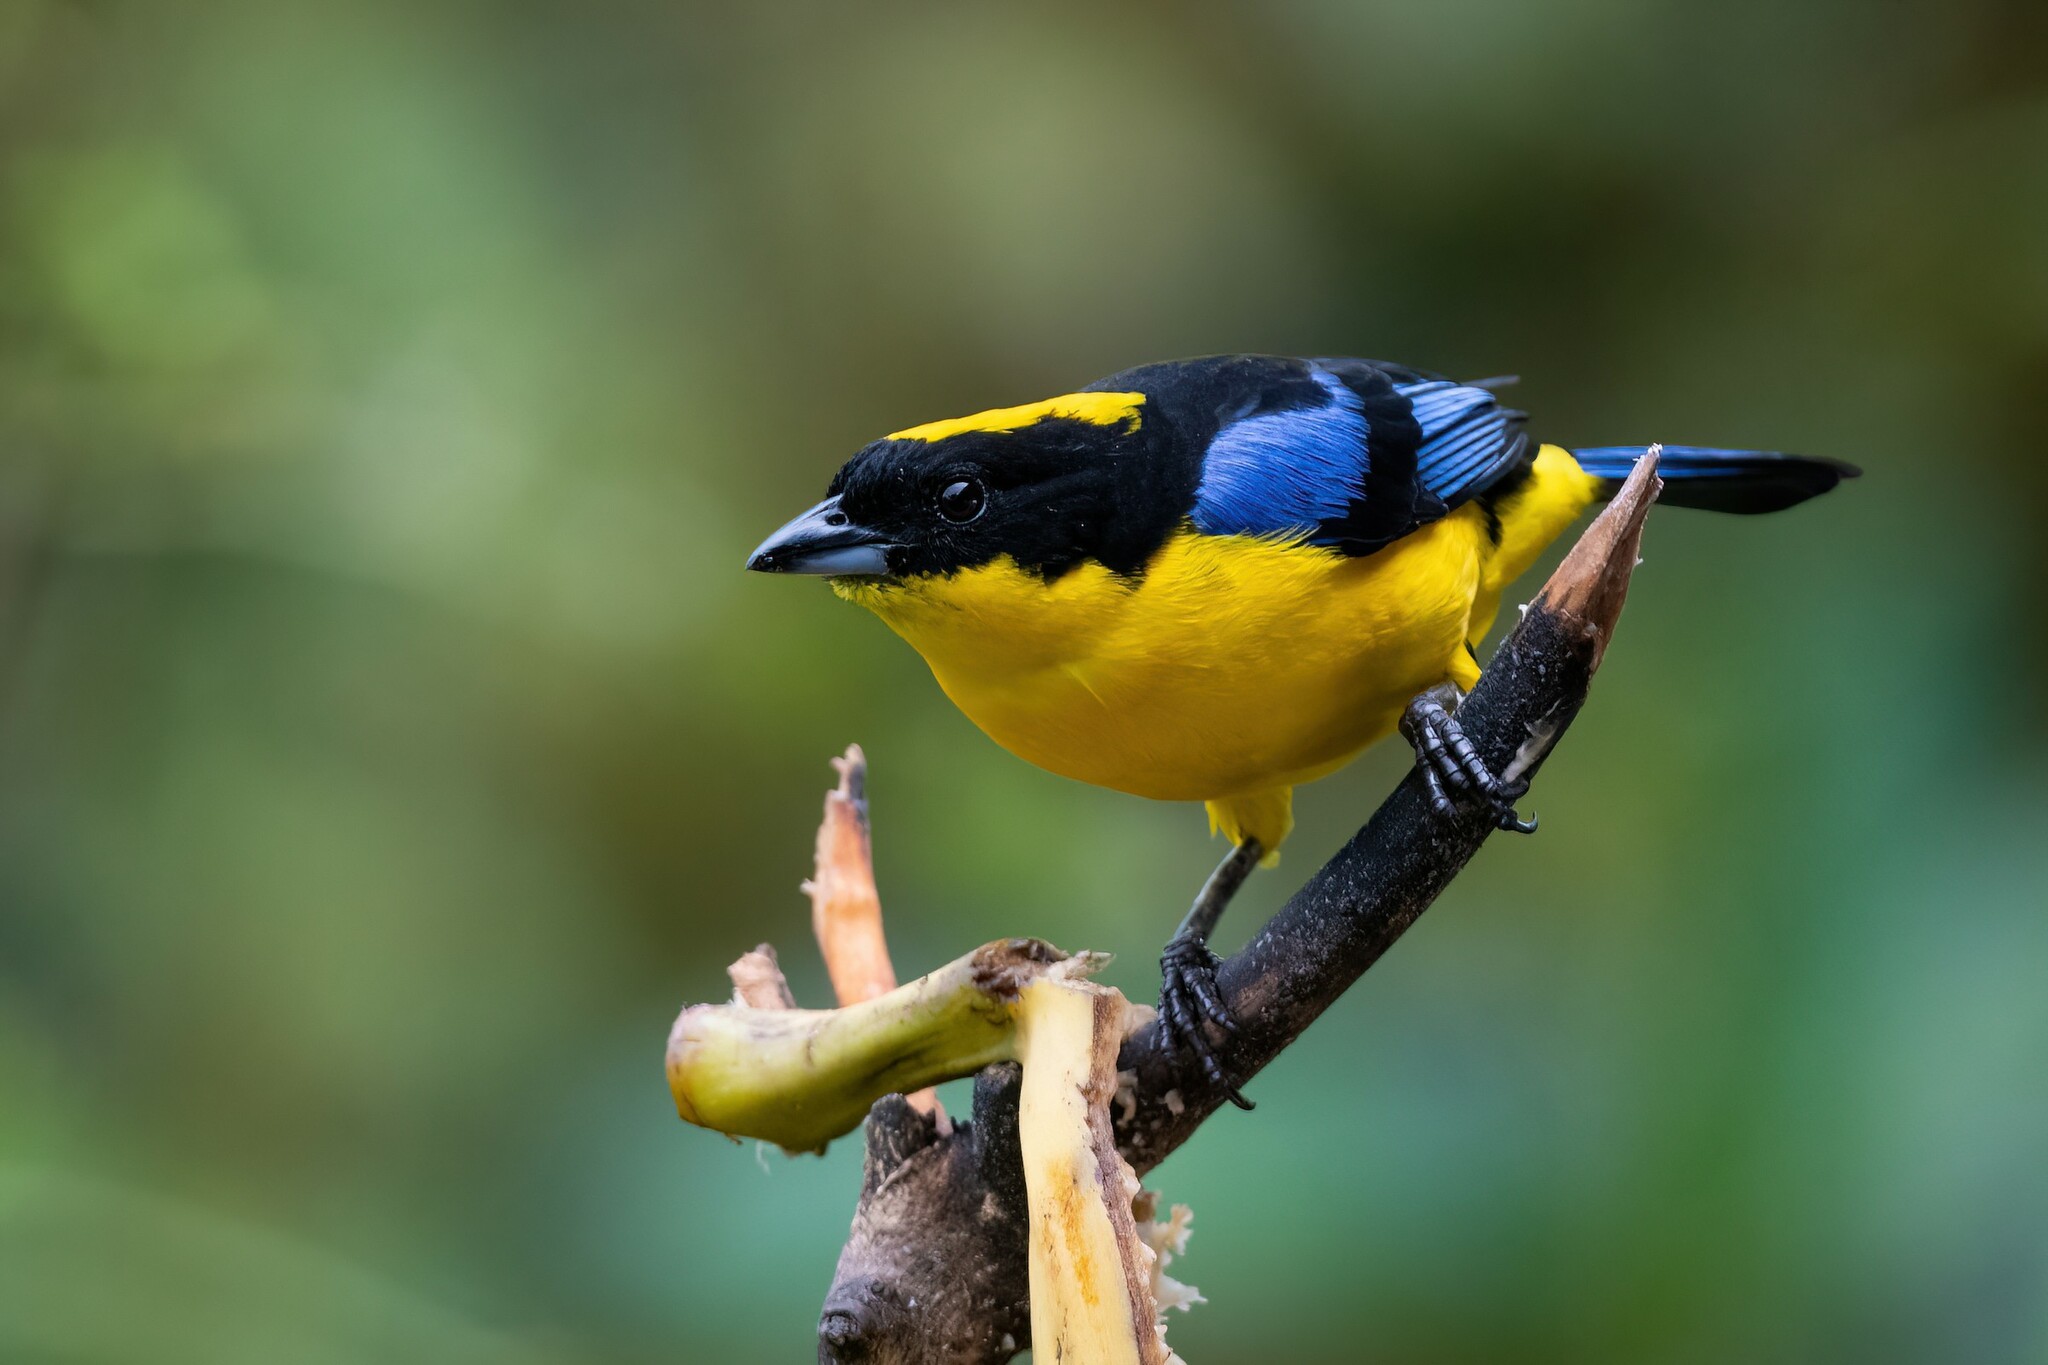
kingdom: Animalia
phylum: Chordata
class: Aves
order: Passeriformes
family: Thraupidae
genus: Anisognathus
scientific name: Anisognathus somptuosus
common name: Blue-winged mountain-tanager
